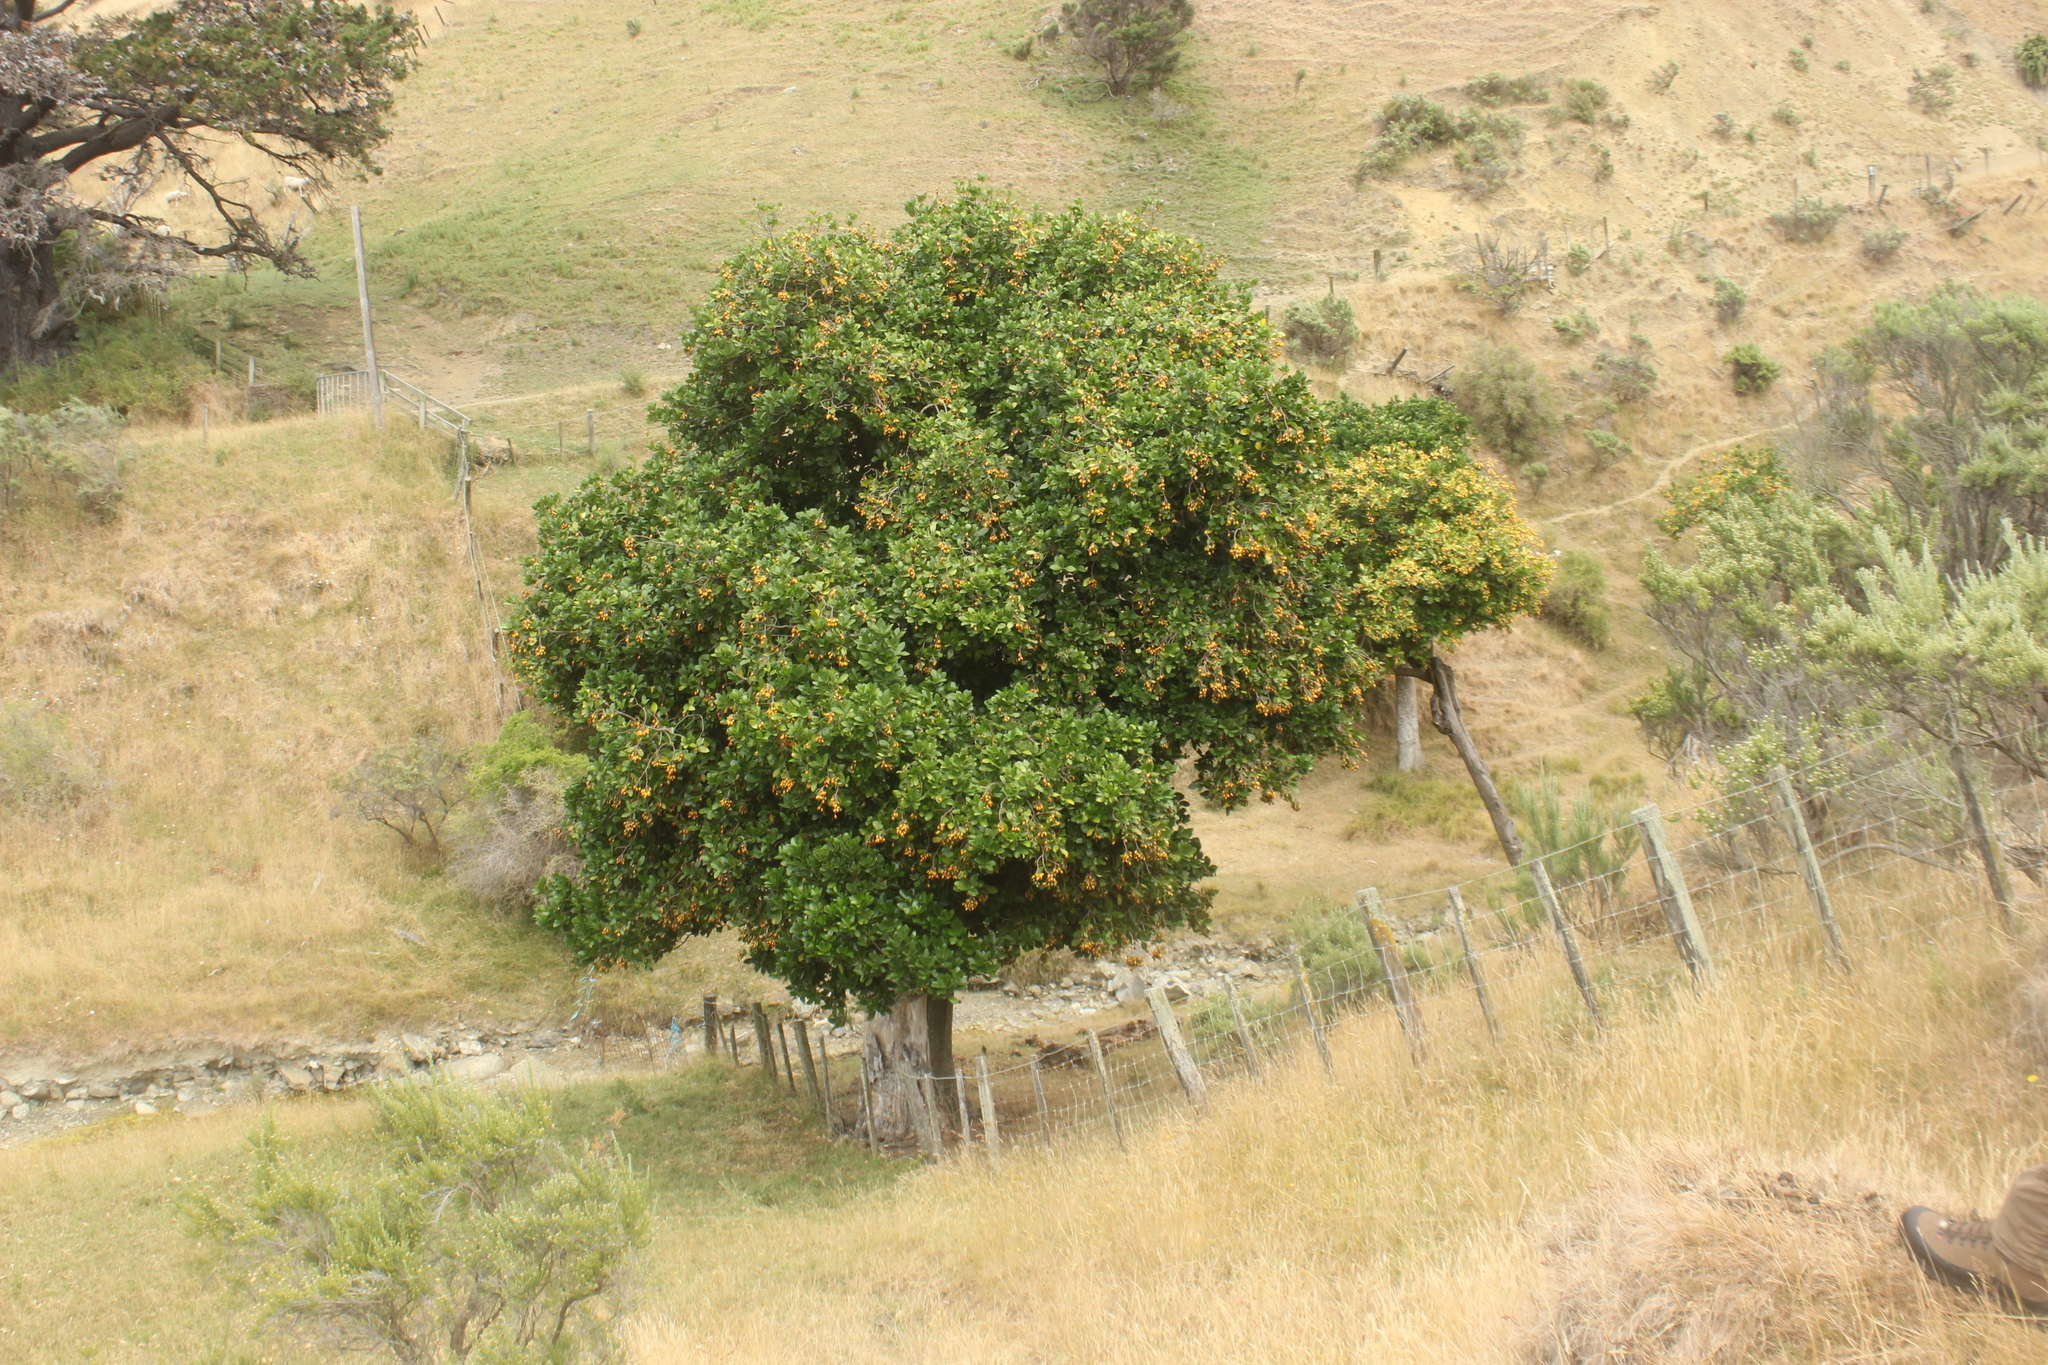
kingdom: Plantae
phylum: Tracheophyta
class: Magnoliopsida
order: Cucurbitales
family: Corynocarpaceae
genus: Corynocarpus
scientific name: Corynocarpus laevigatus
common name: New zealand laurel
